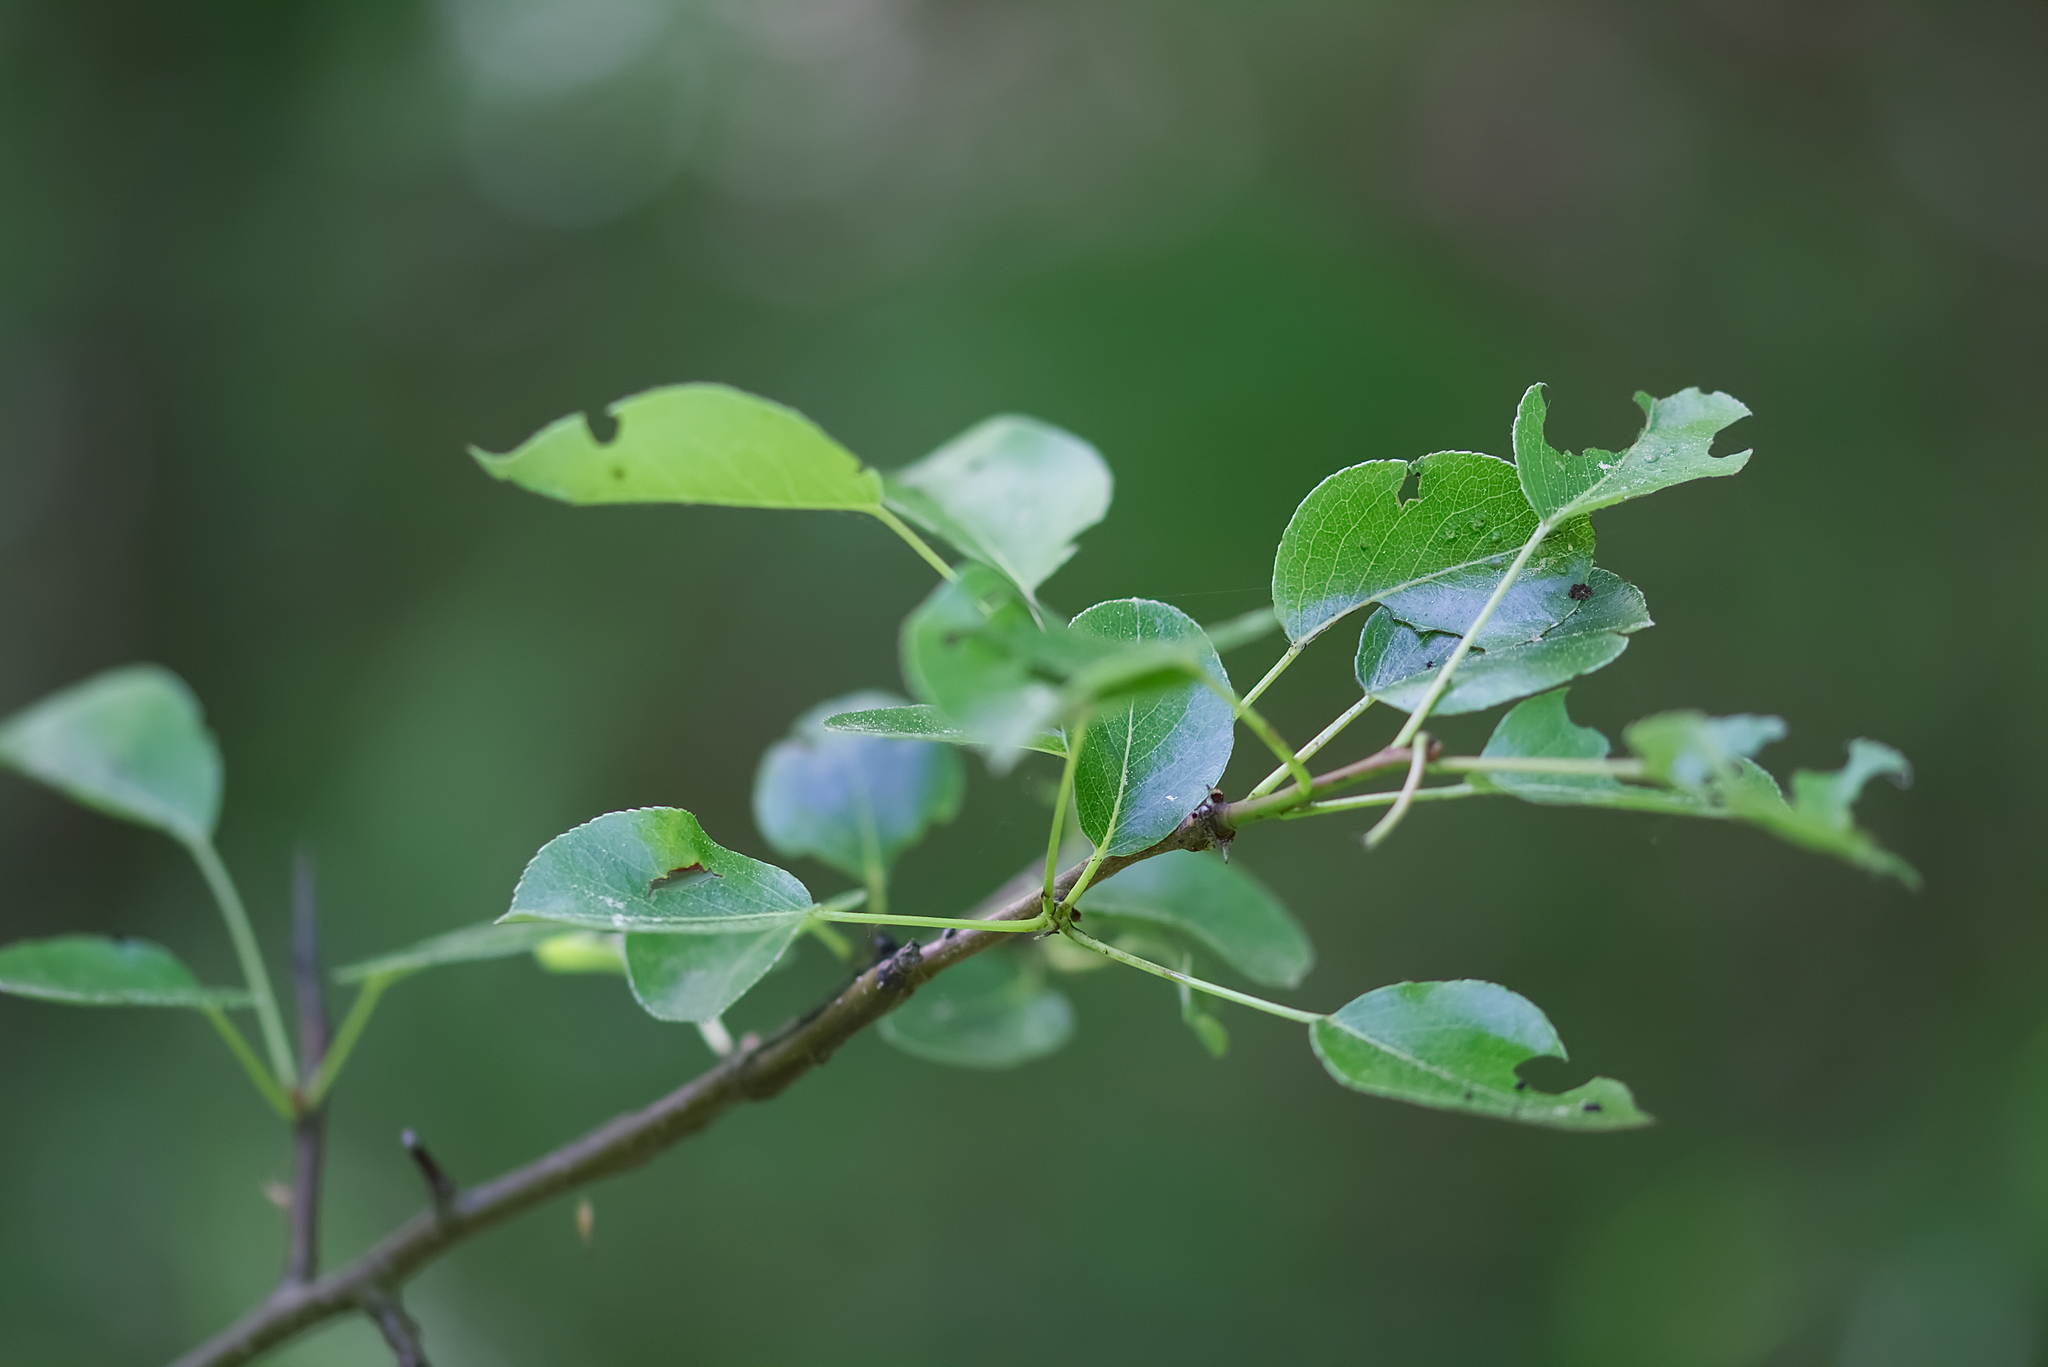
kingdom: Plantae
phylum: Tracheophyta
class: Magnoliopsida
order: Rosales
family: Rosaceae
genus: Pyrus
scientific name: Pyrus
